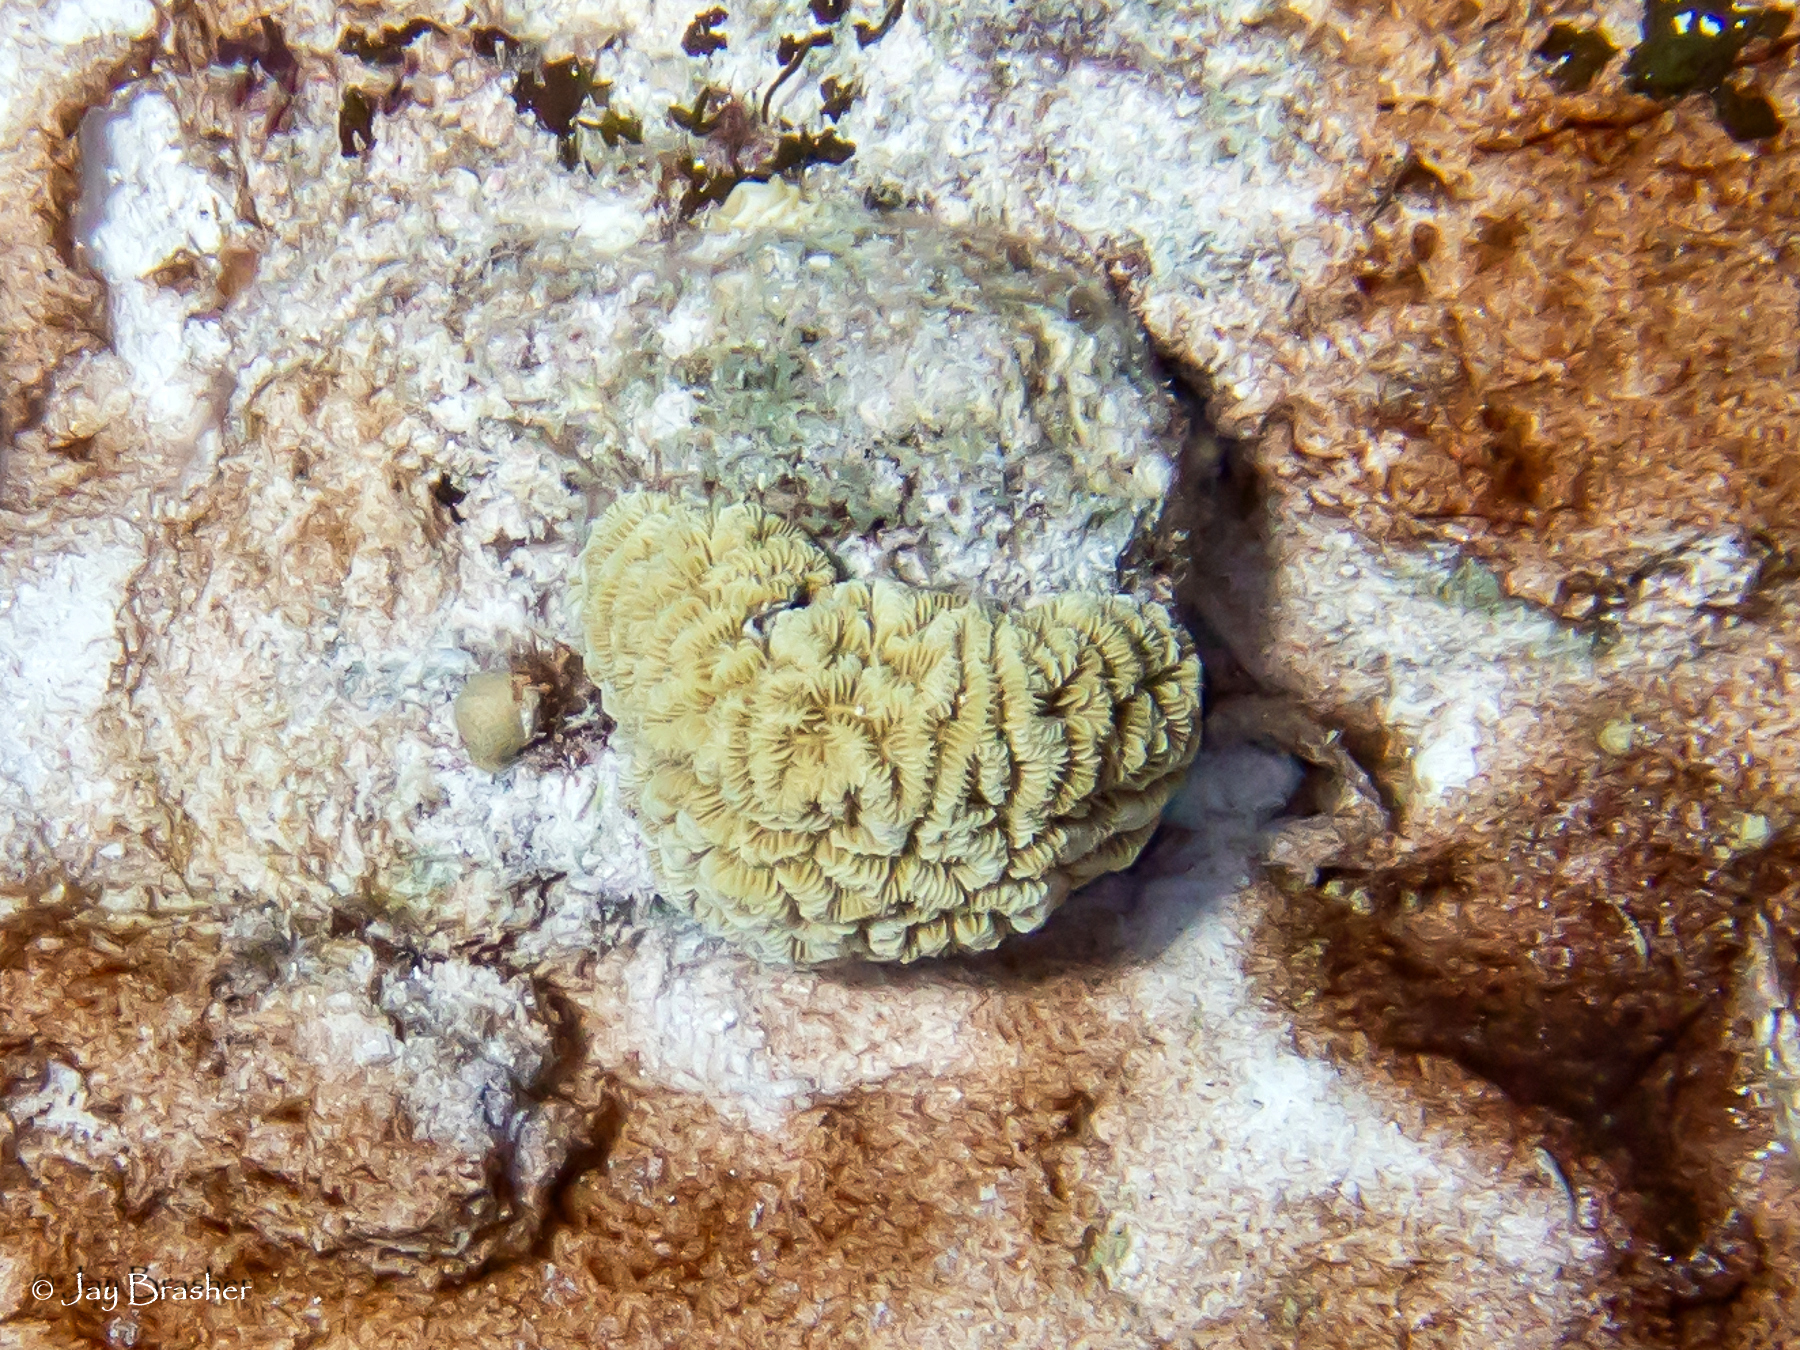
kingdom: Animalia
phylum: Cnidaria
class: Anthozoa
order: Scleractinia
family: Meandrinidae
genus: Meandrina
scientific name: Meandrina meandrites
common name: Maze coral
